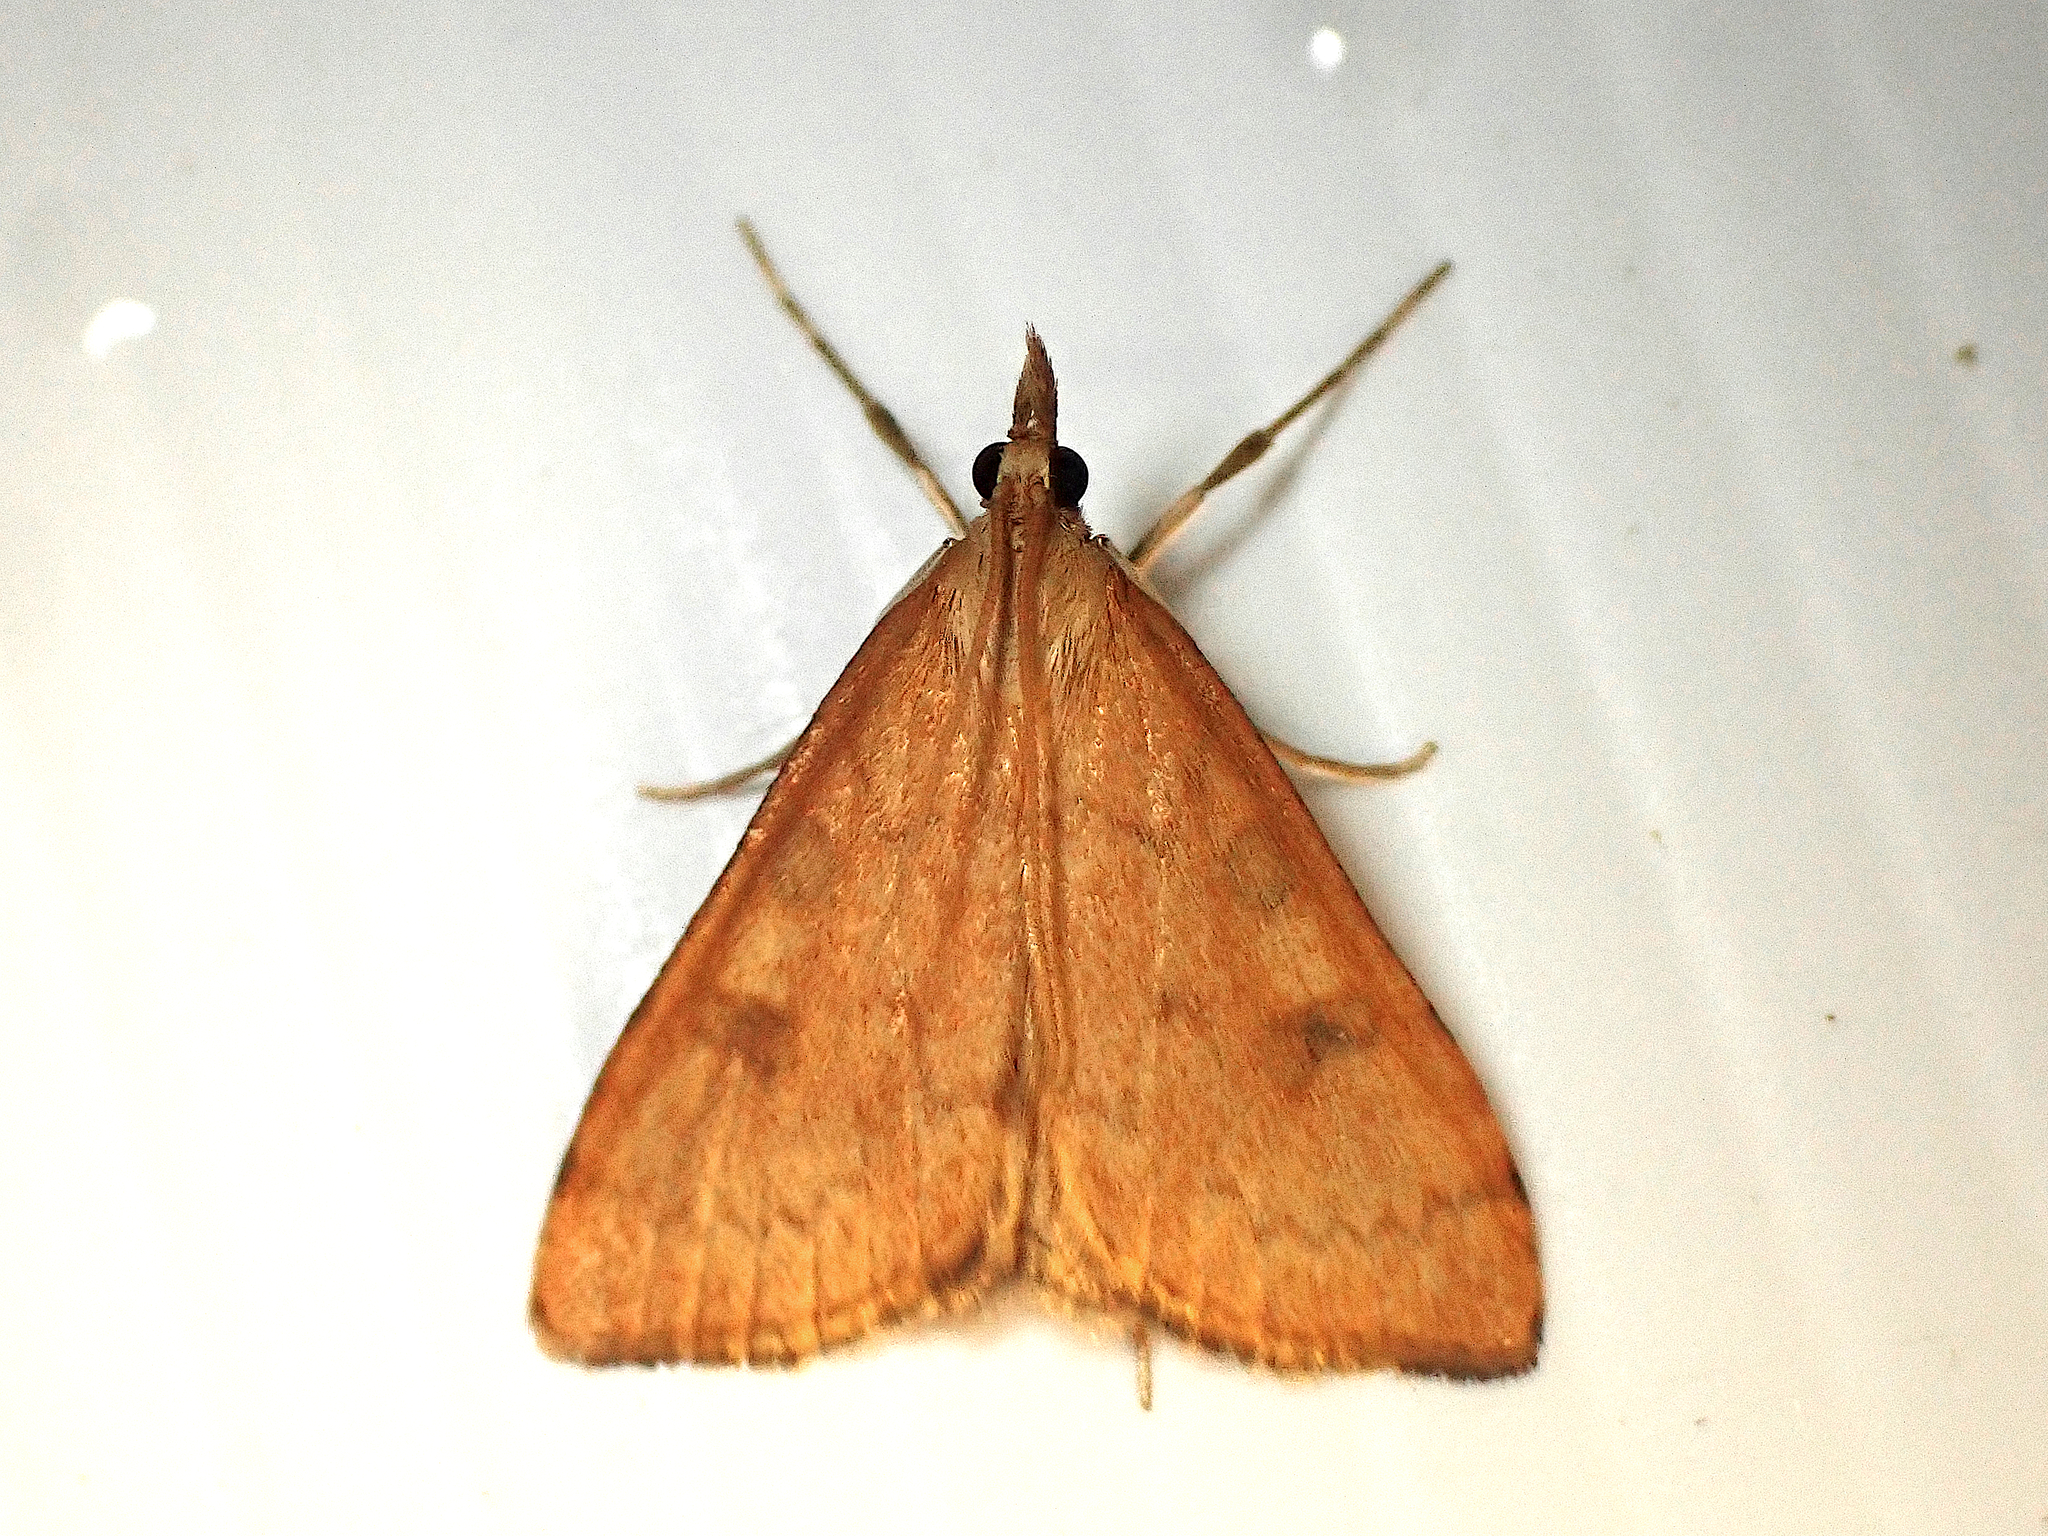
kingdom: Animalia
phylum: Arthropoda
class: Insecta
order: Lepidoptera
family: Crambidae
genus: Udea
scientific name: Udea Mnesictena flavidalis
